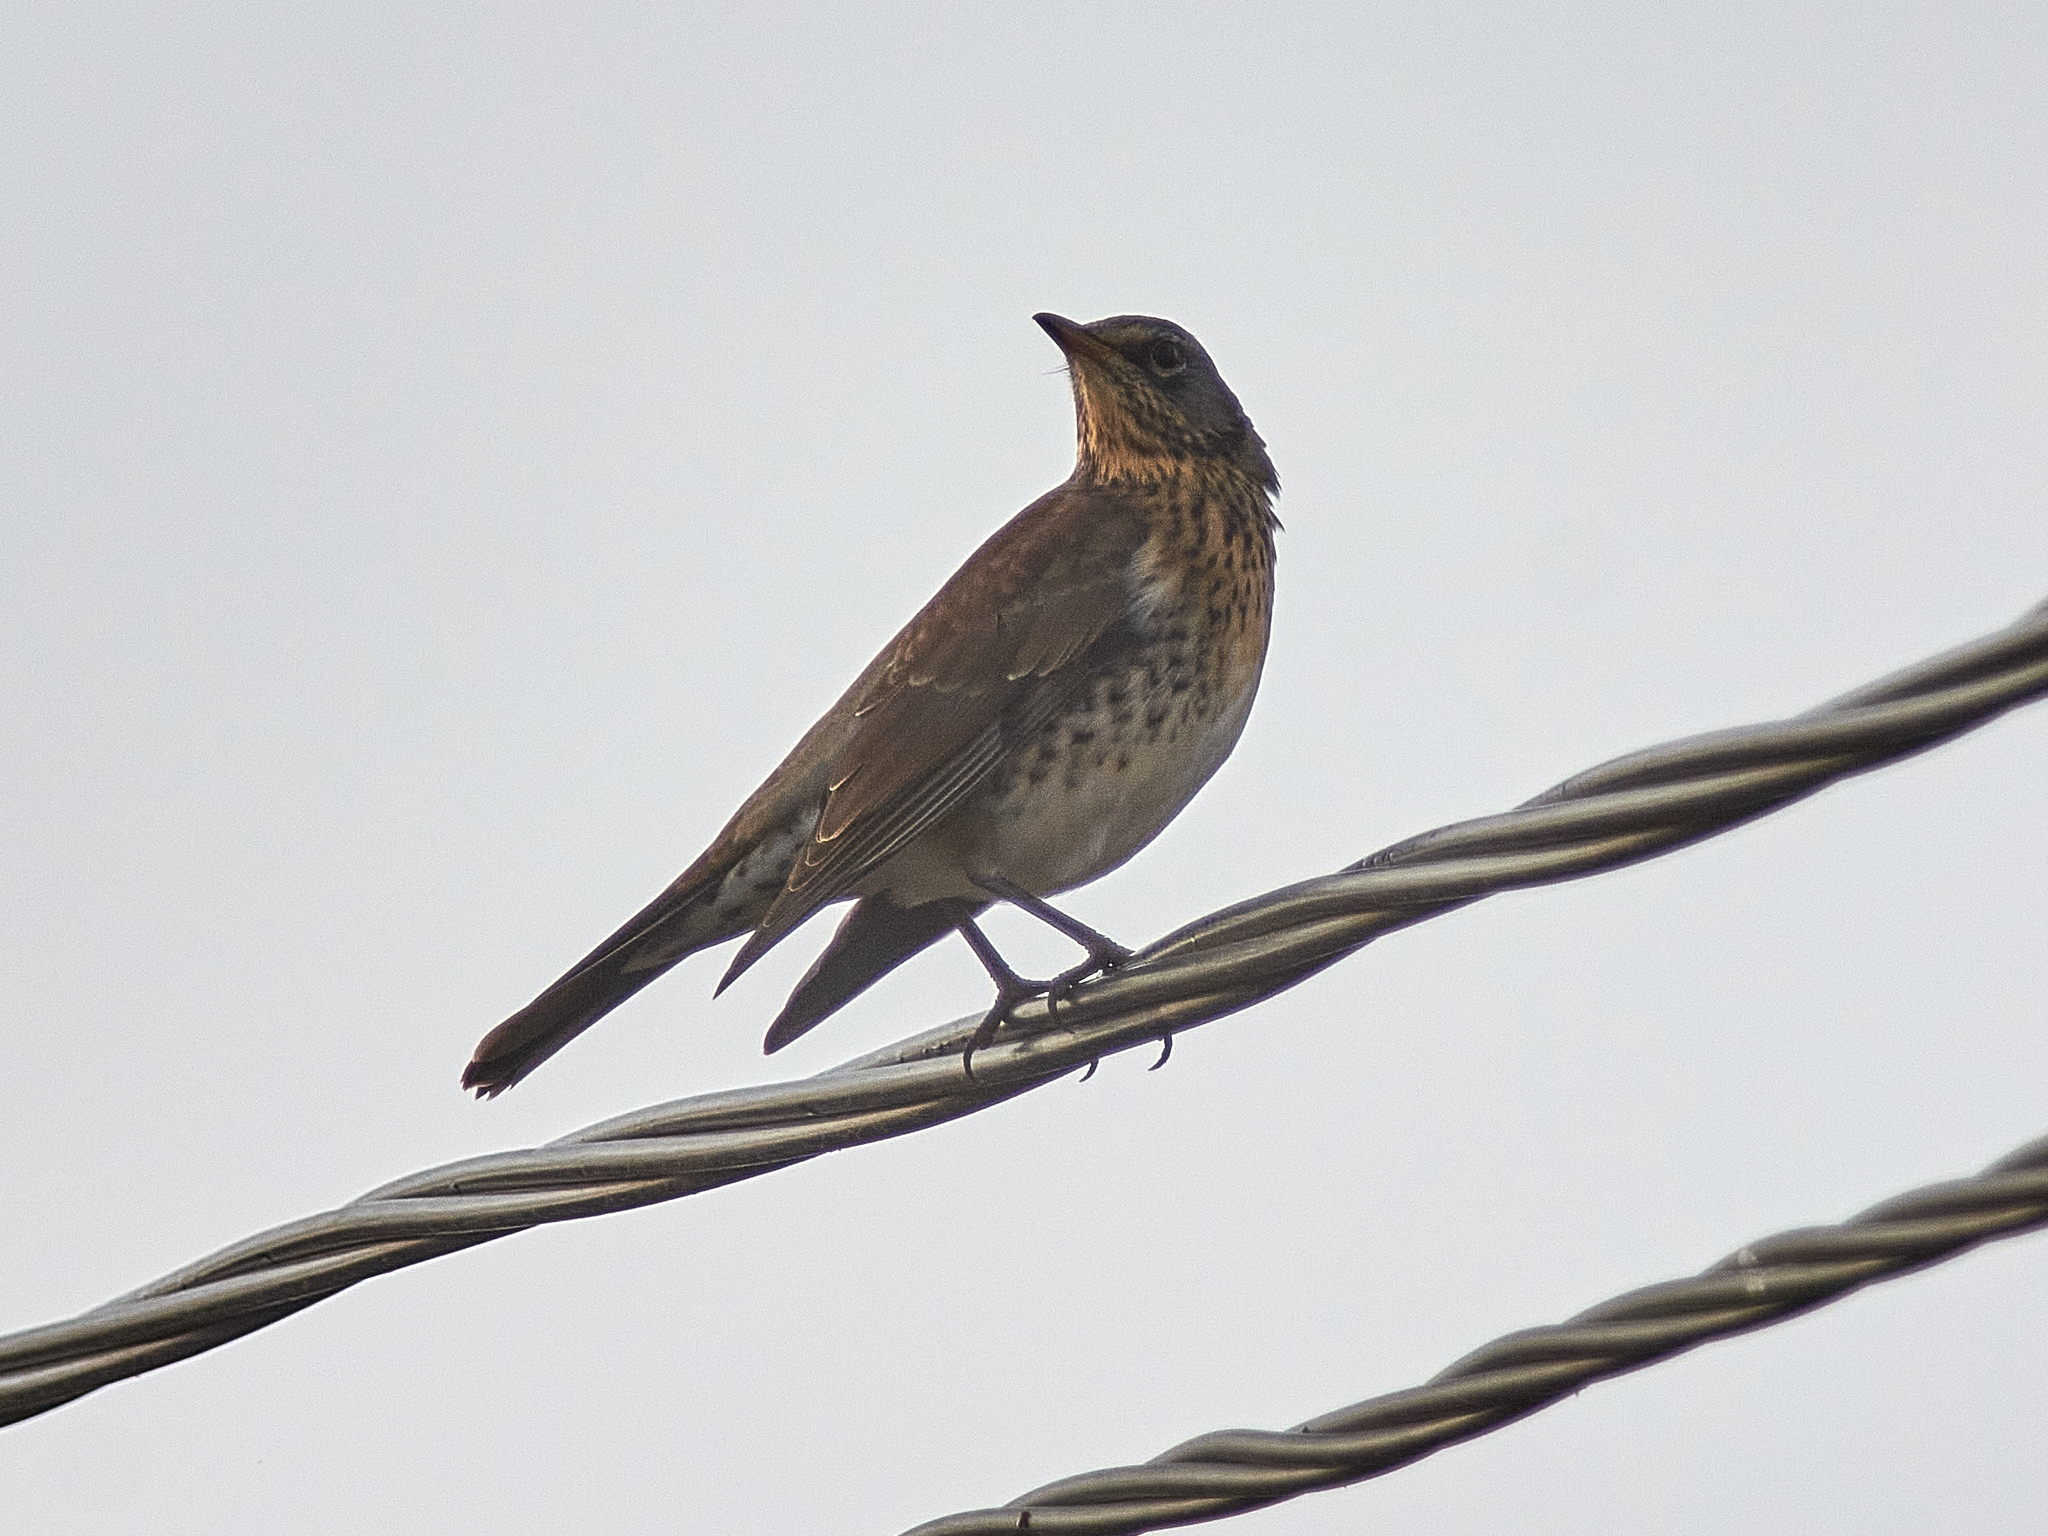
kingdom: Animalia
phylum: Chordata
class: Aves
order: Passeriformes
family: Turdidae
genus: Turdus
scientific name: Turdus pilaris
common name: Fieldfare
